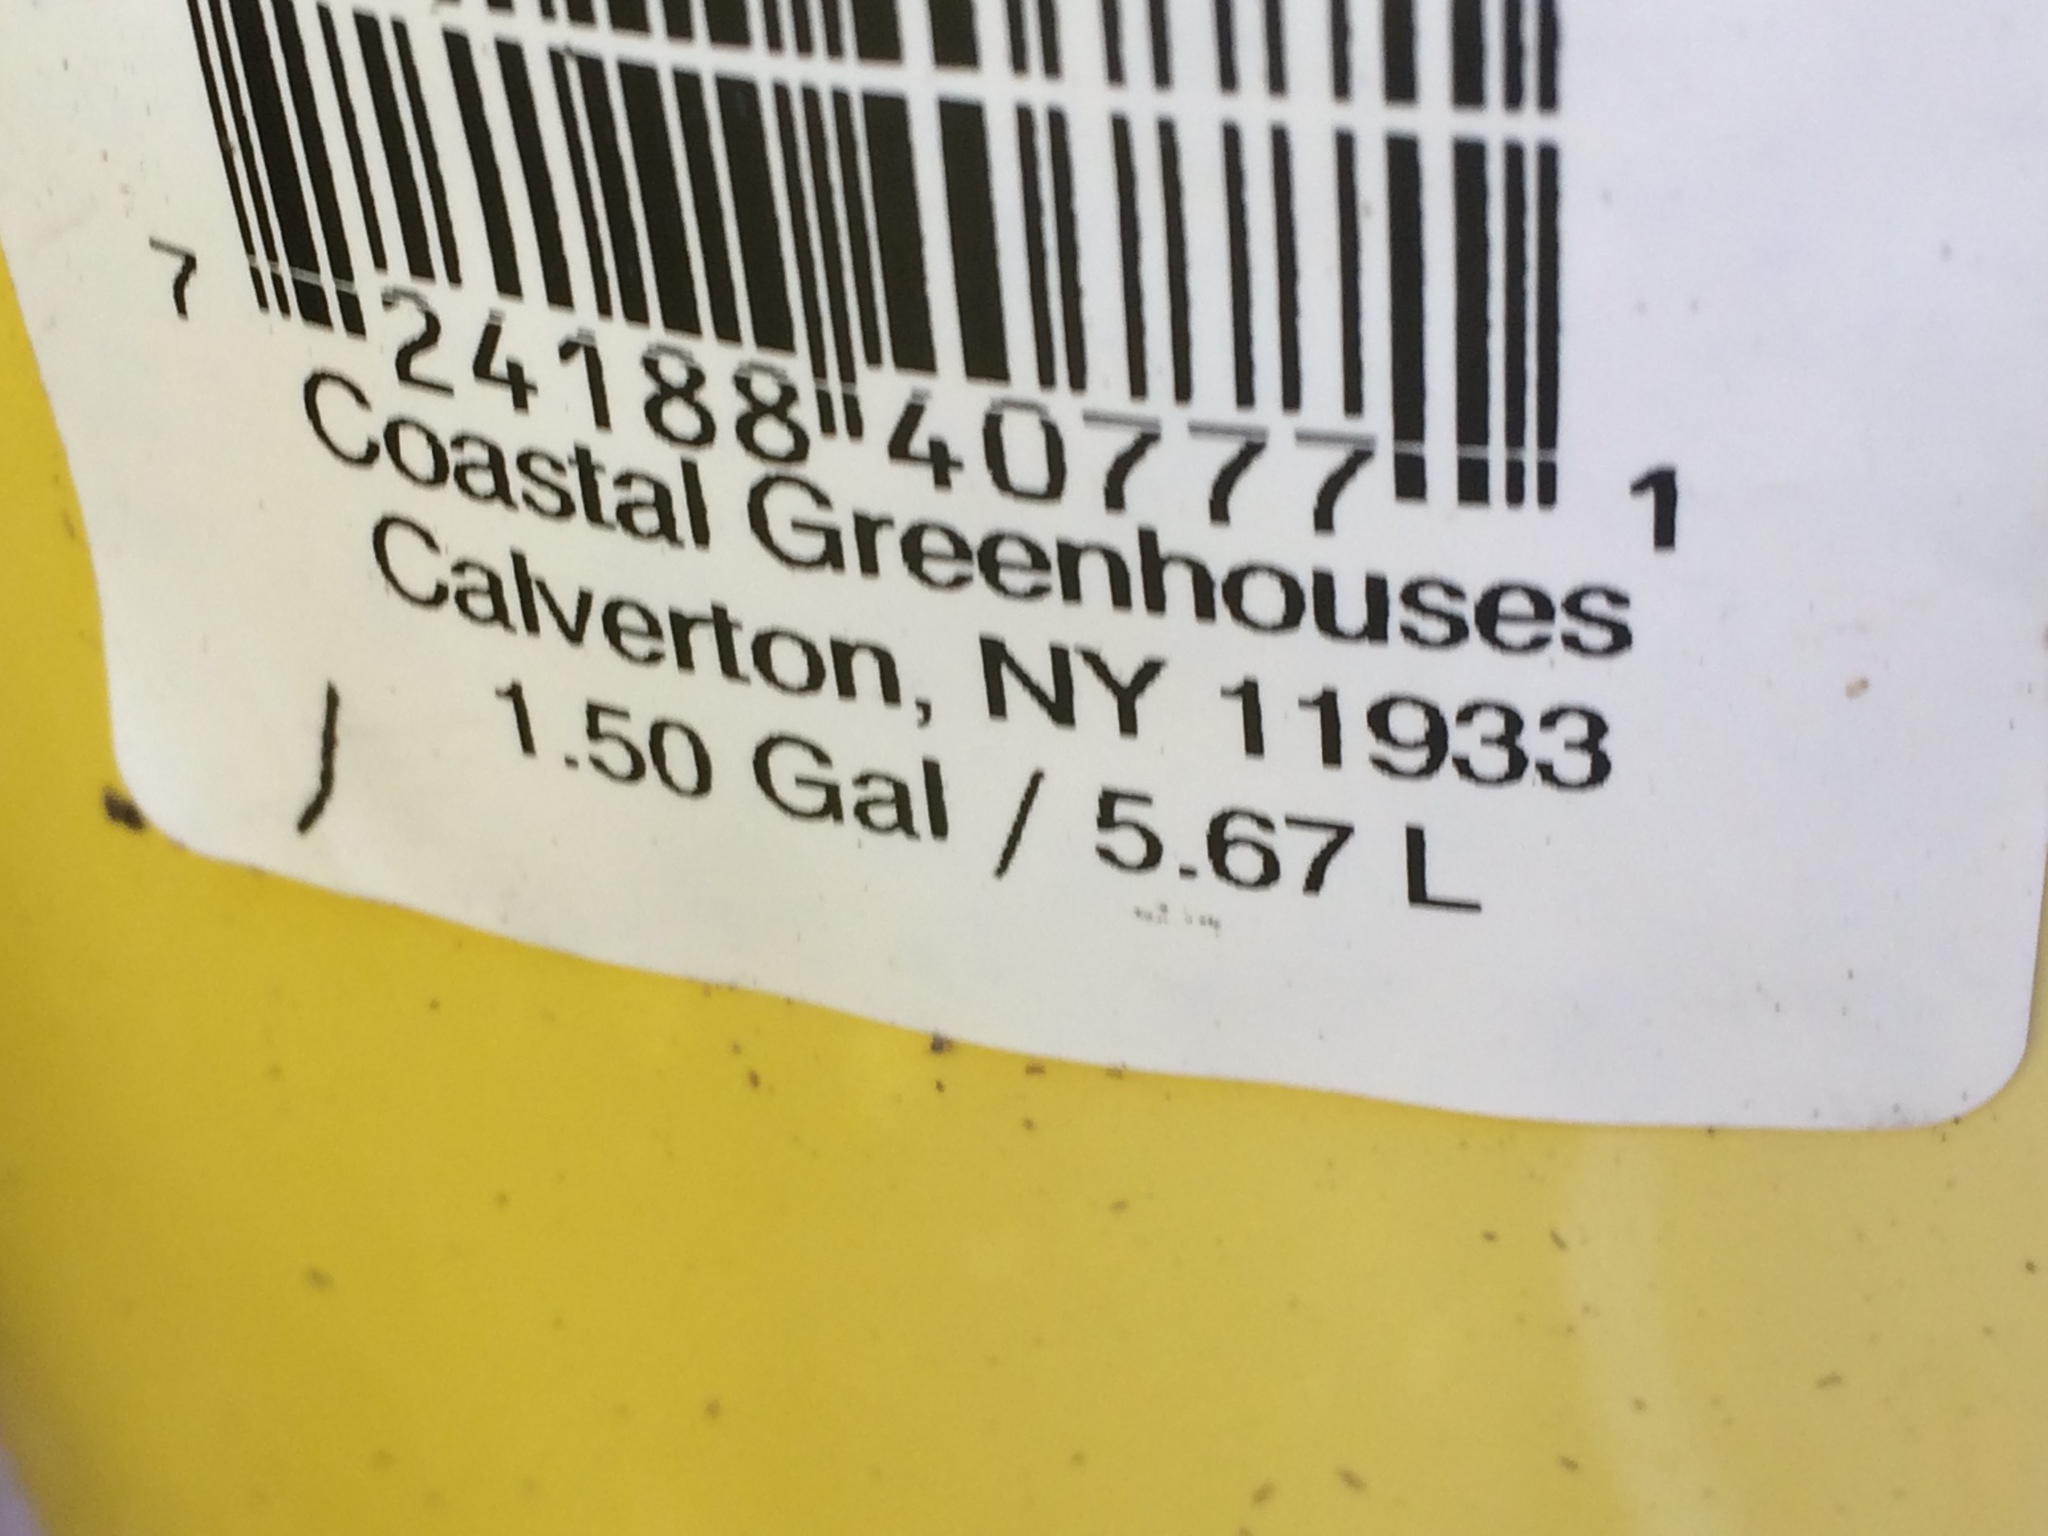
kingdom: Plantae
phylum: Marchantiophyta
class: Marchantiopsida
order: Marchantiales
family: Marchantiaceae
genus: Marchantia
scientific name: Marchantia polymorpha
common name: Common liverwort
